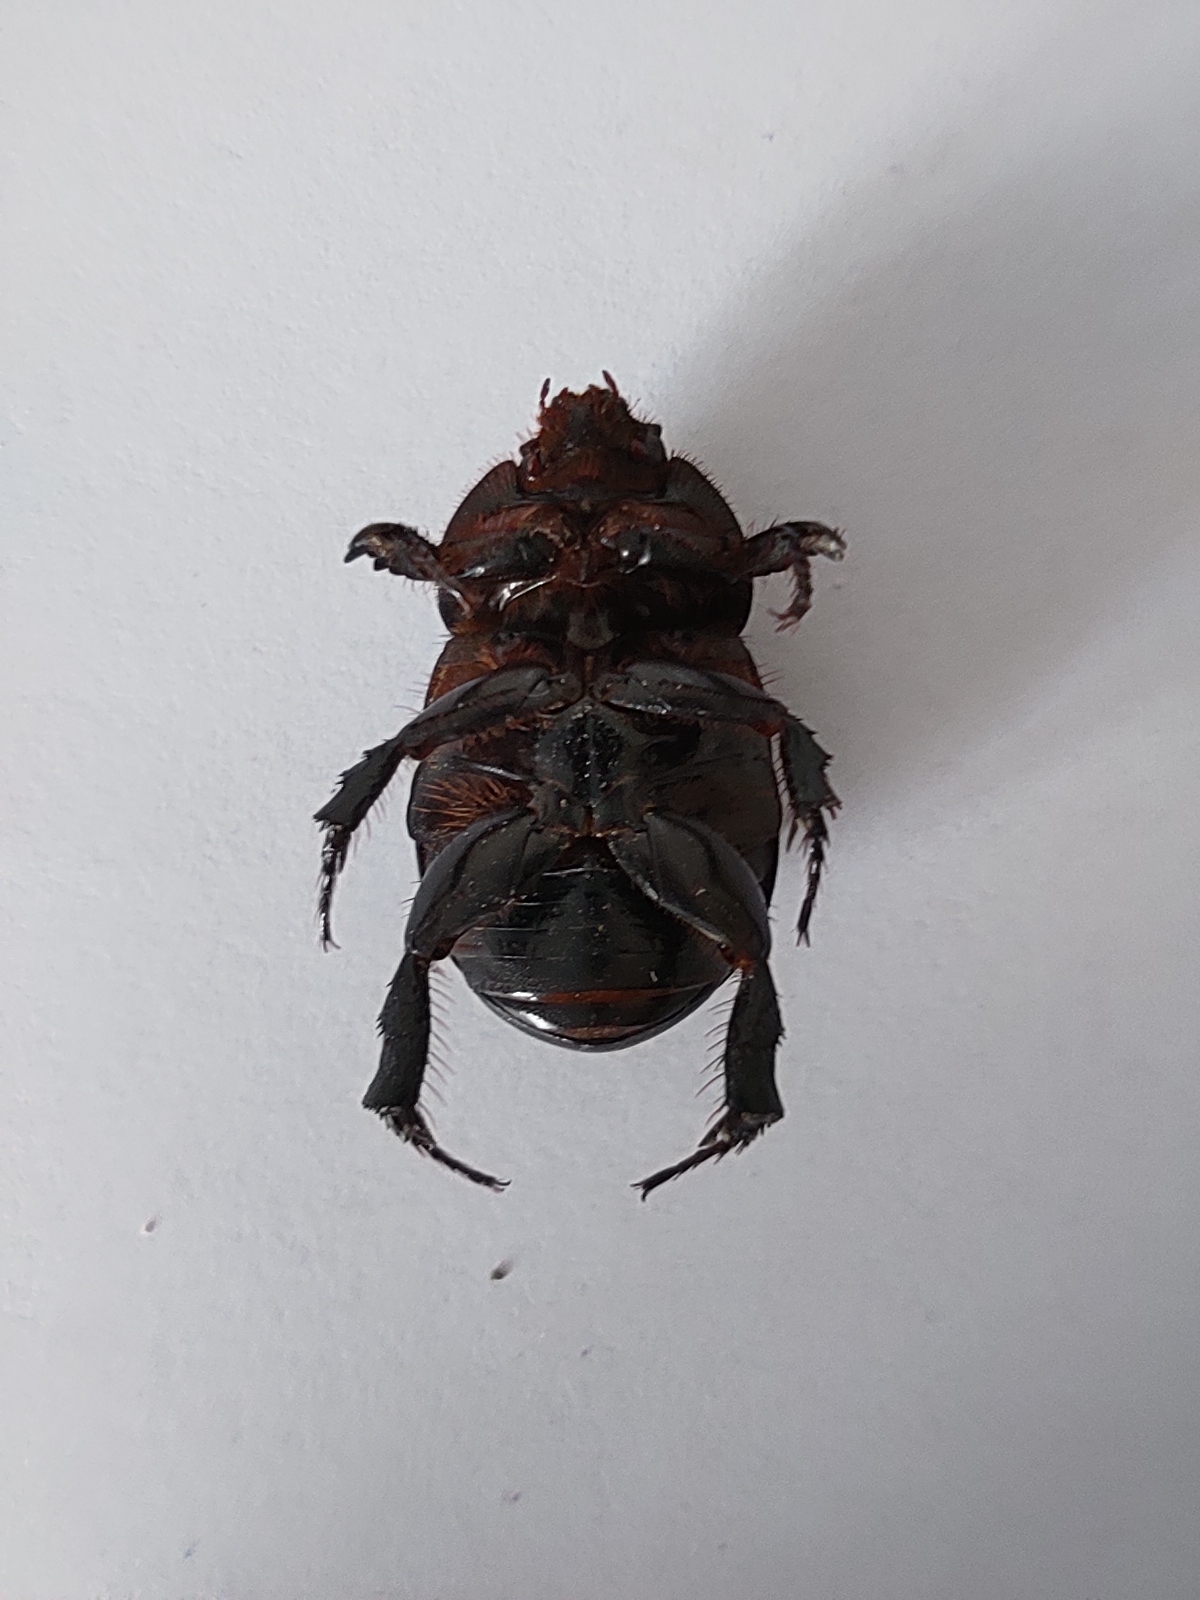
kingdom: Animalia
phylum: Arthropoda
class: Insecta
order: Coleoptera
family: Scarabaeidae
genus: Pentodon
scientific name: Pentodon idiota
